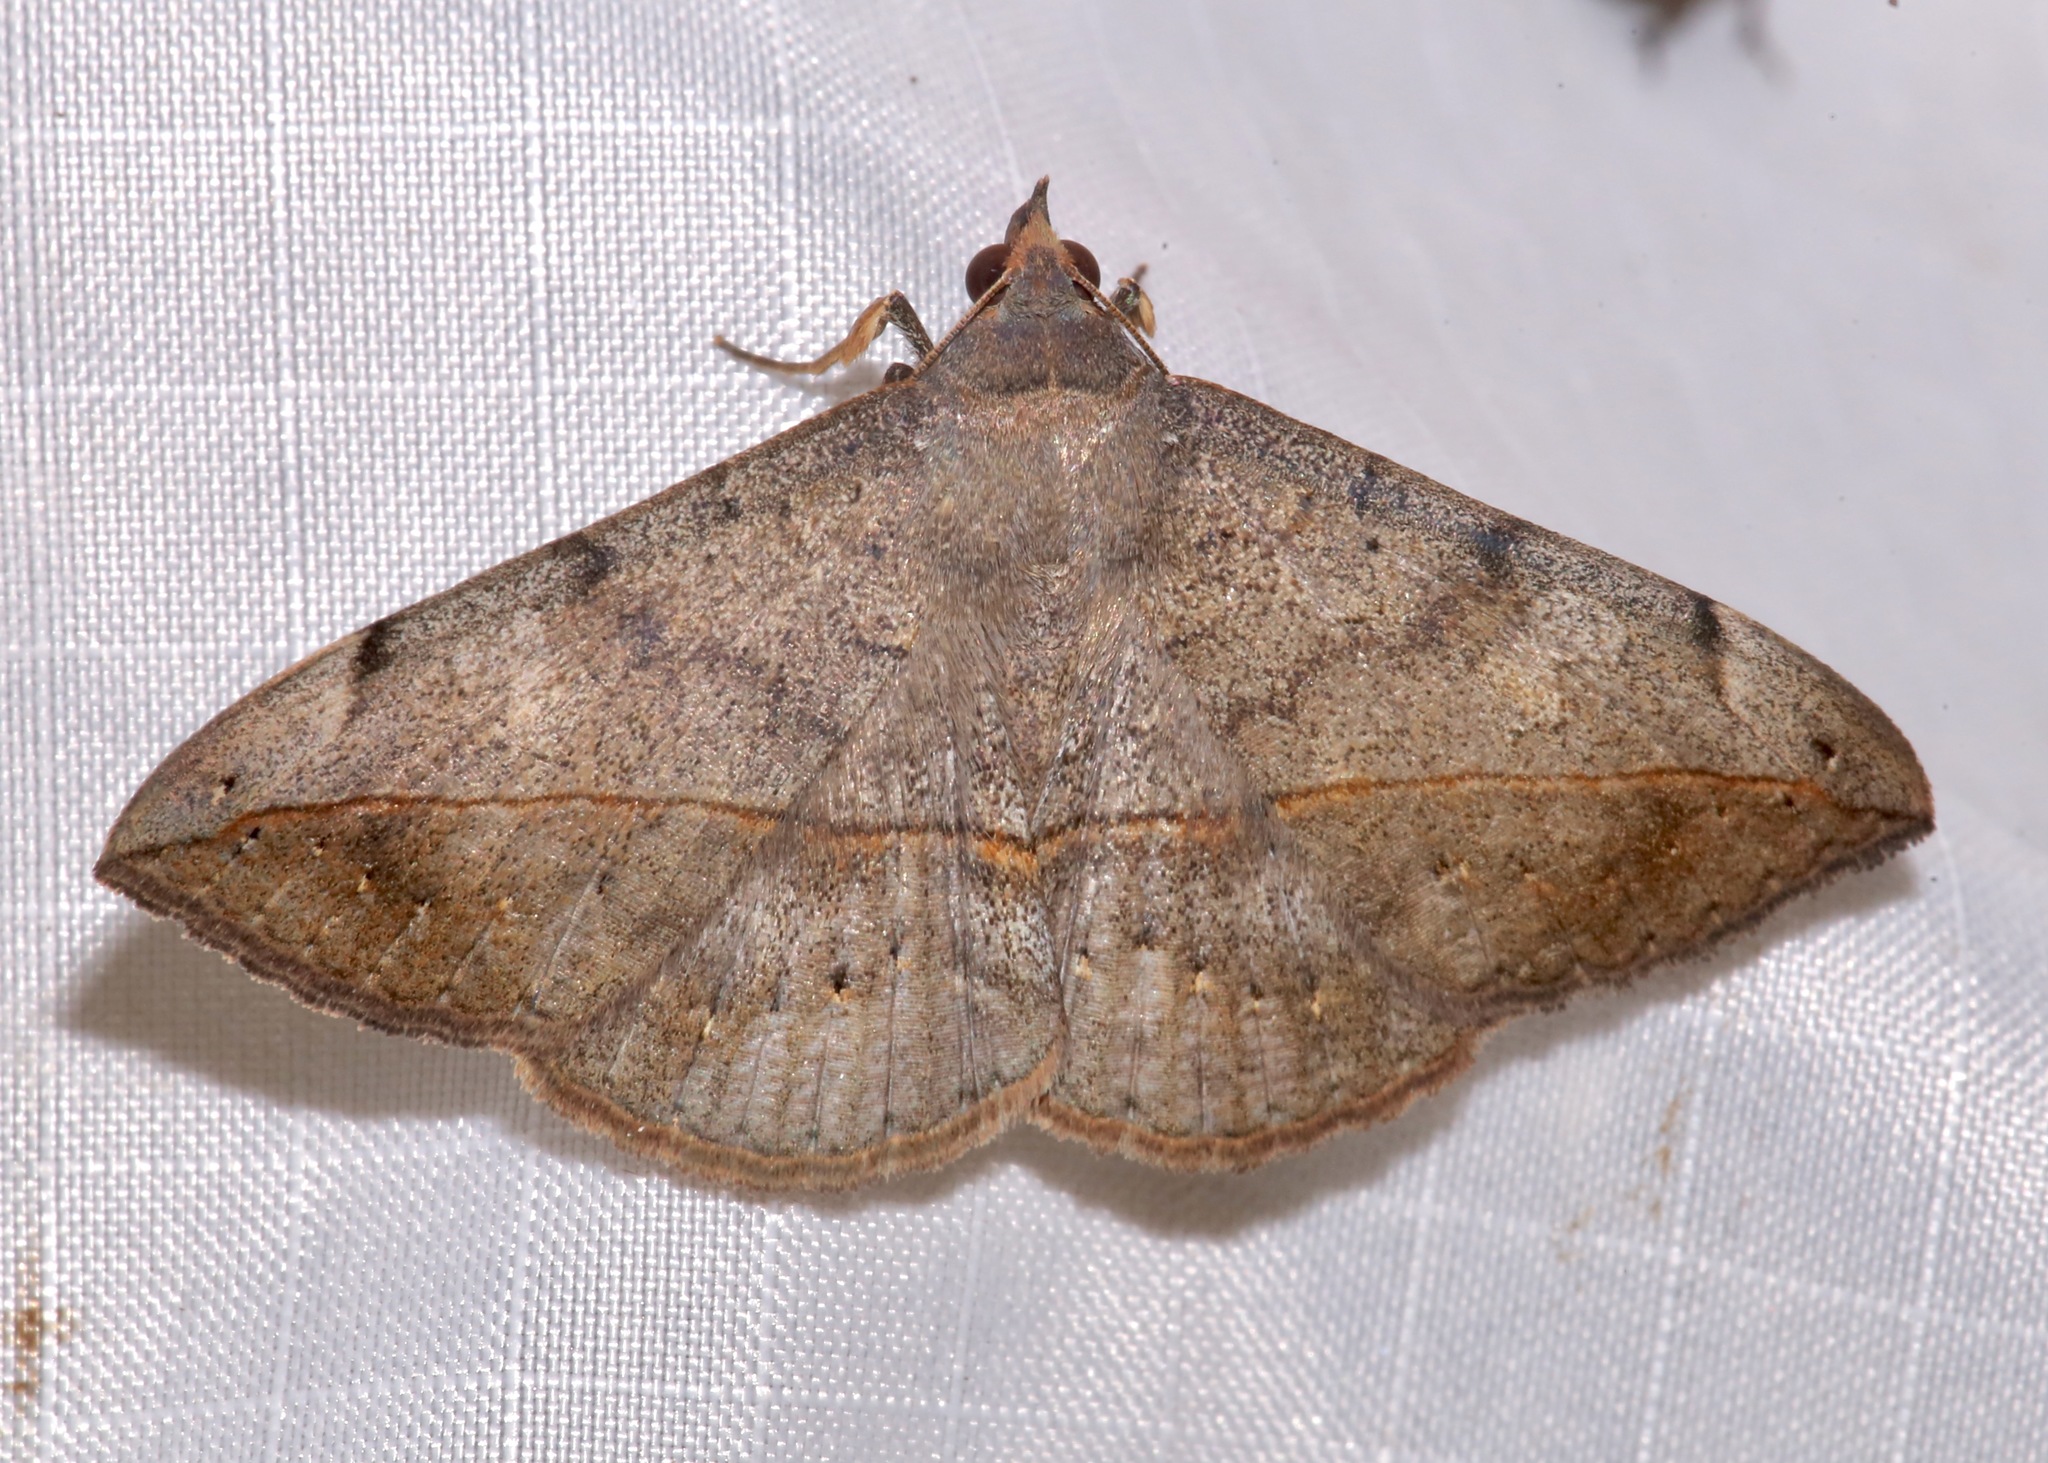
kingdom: Animalia
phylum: Arthropoda
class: Insecta
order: Lepidoptera
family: Erebidae
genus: Anticarsia
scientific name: Anticarsia gemmatalis
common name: Cutworm moth
